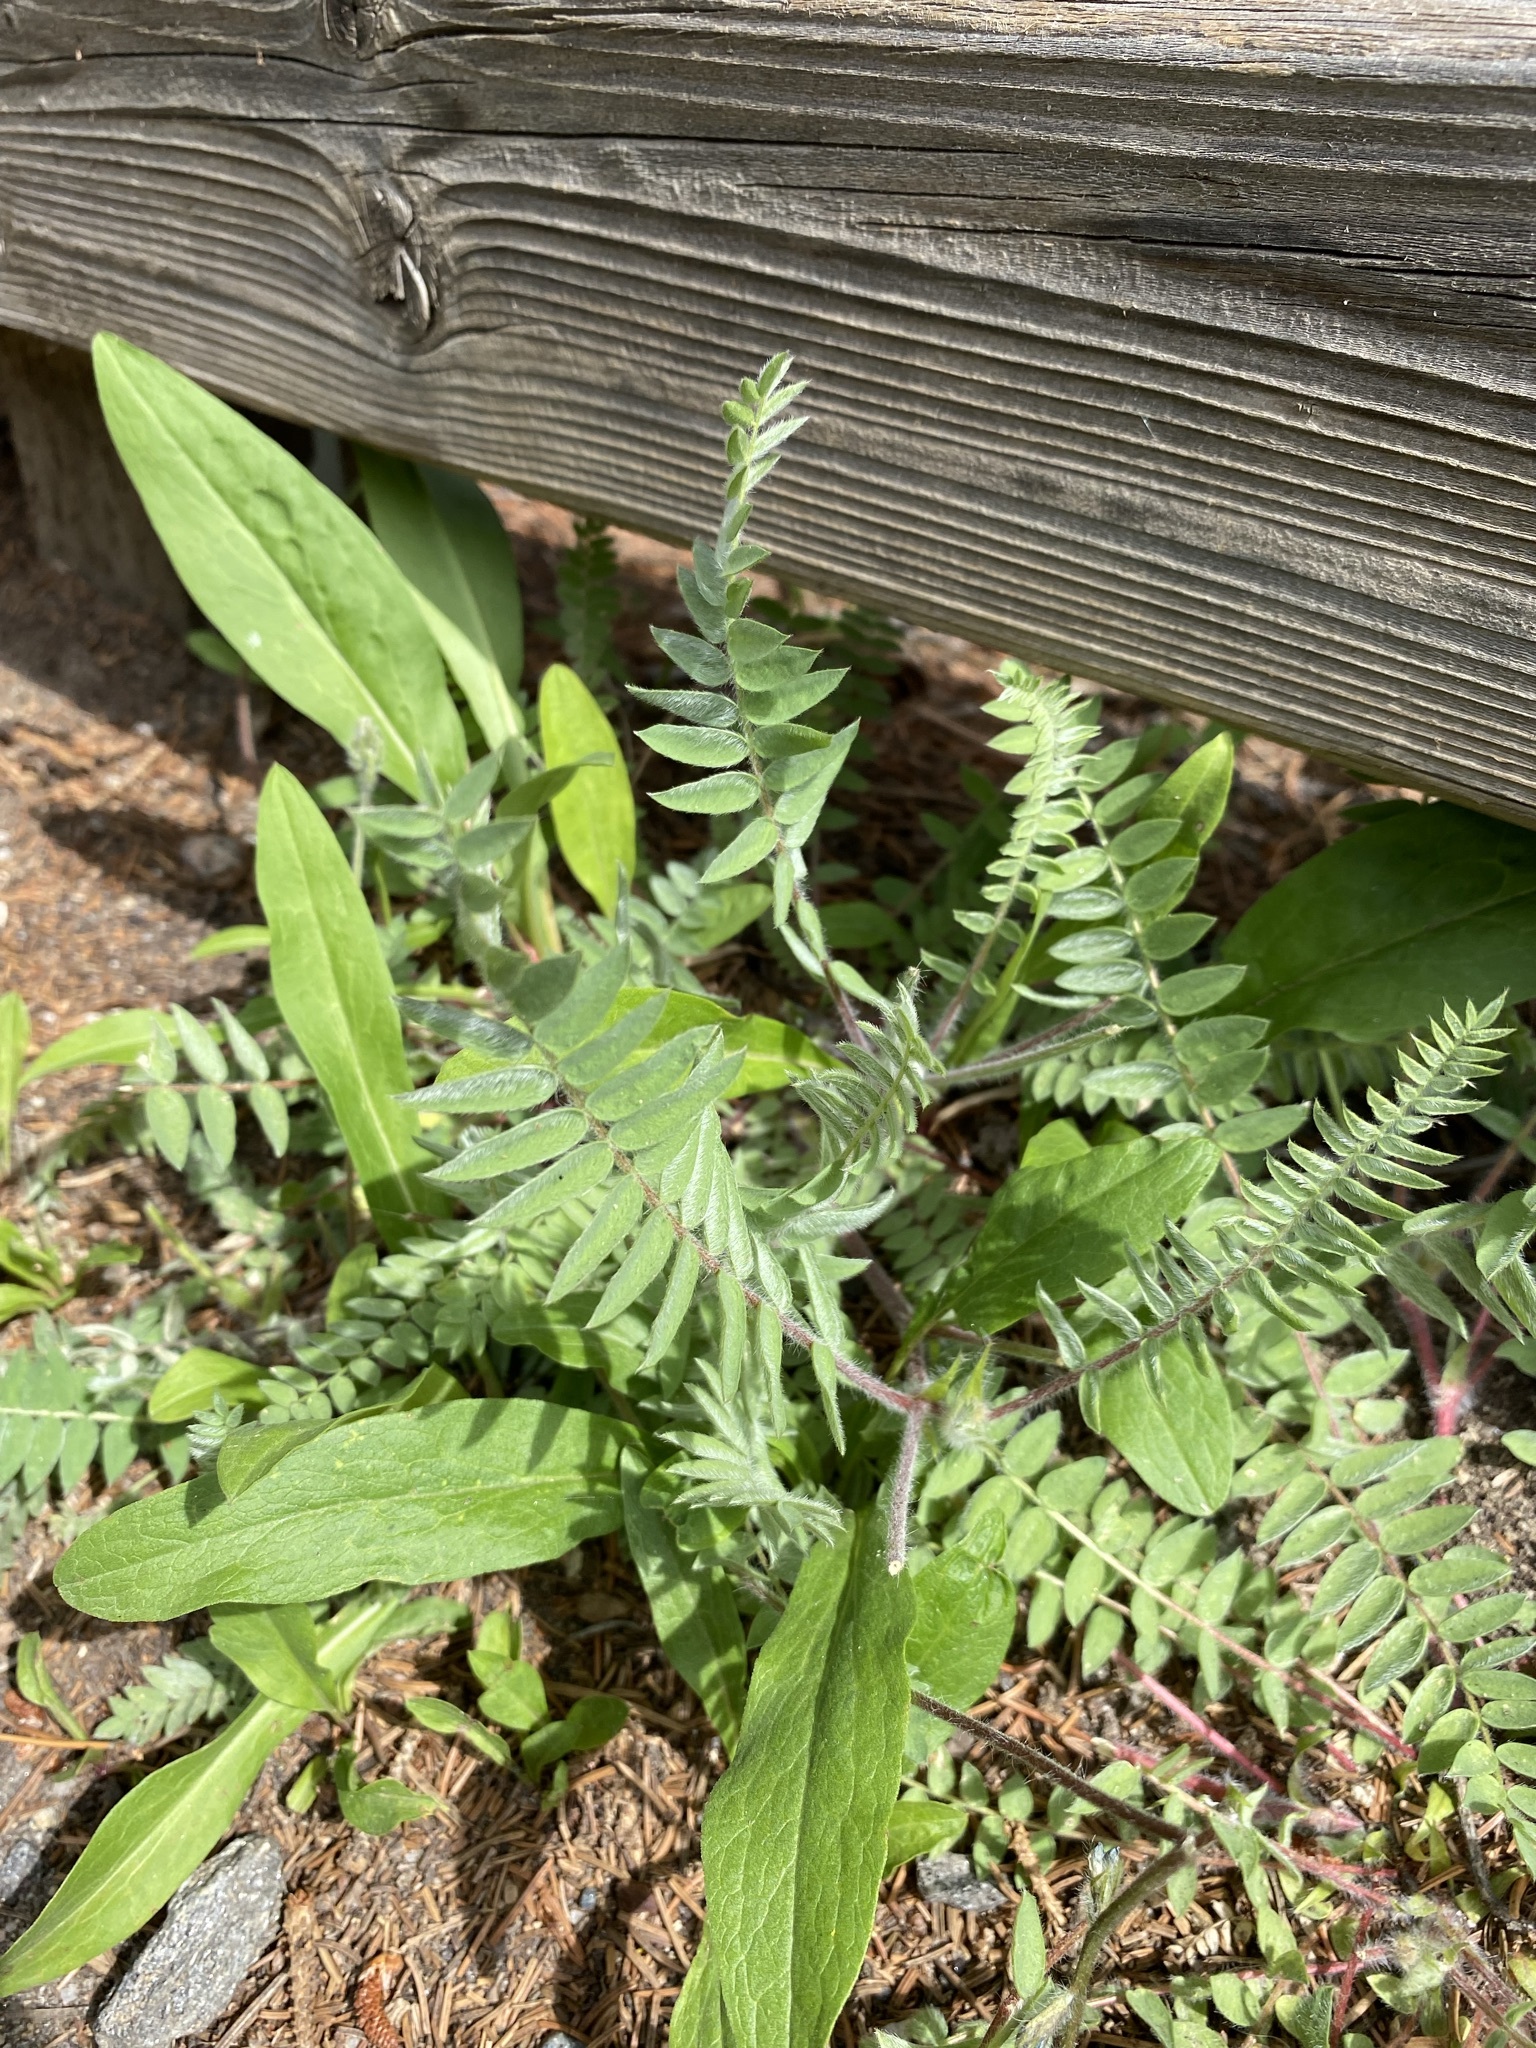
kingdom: Plantae
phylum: Tracheophyta
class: Magnoliopsida
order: Fabales
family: Fabaceae
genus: Oxytropis
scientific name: Oxytropis deflexa
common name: Stemmed oxytrope
